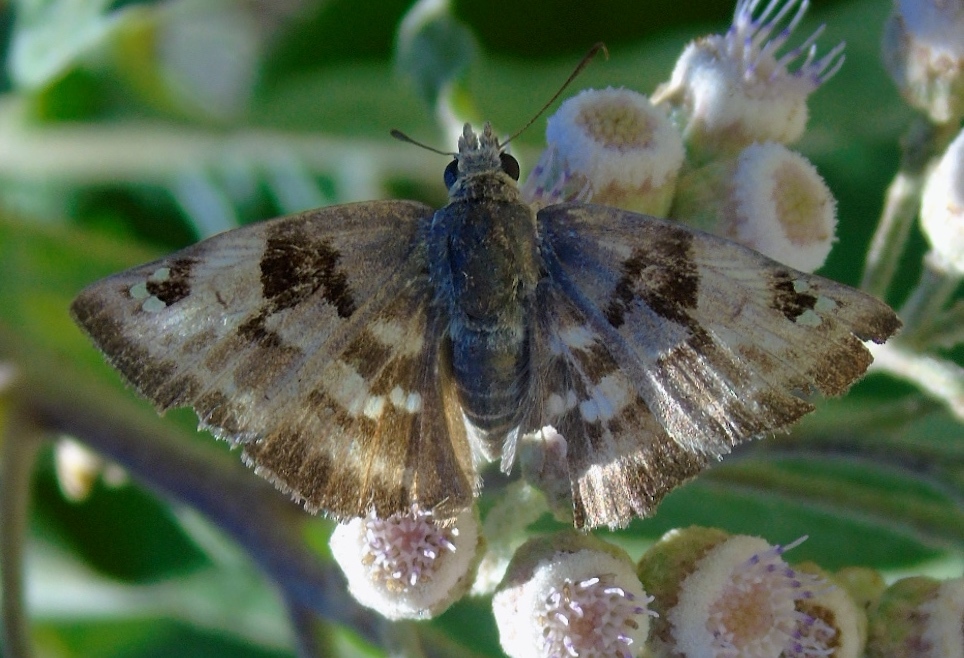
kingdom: Animalia
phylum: Arthropoda
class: Insecta
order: Lepidoptera
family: Hesperiidae
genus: Arteurotia
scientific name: Arteurotia tractipennis
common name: Starred skipper
